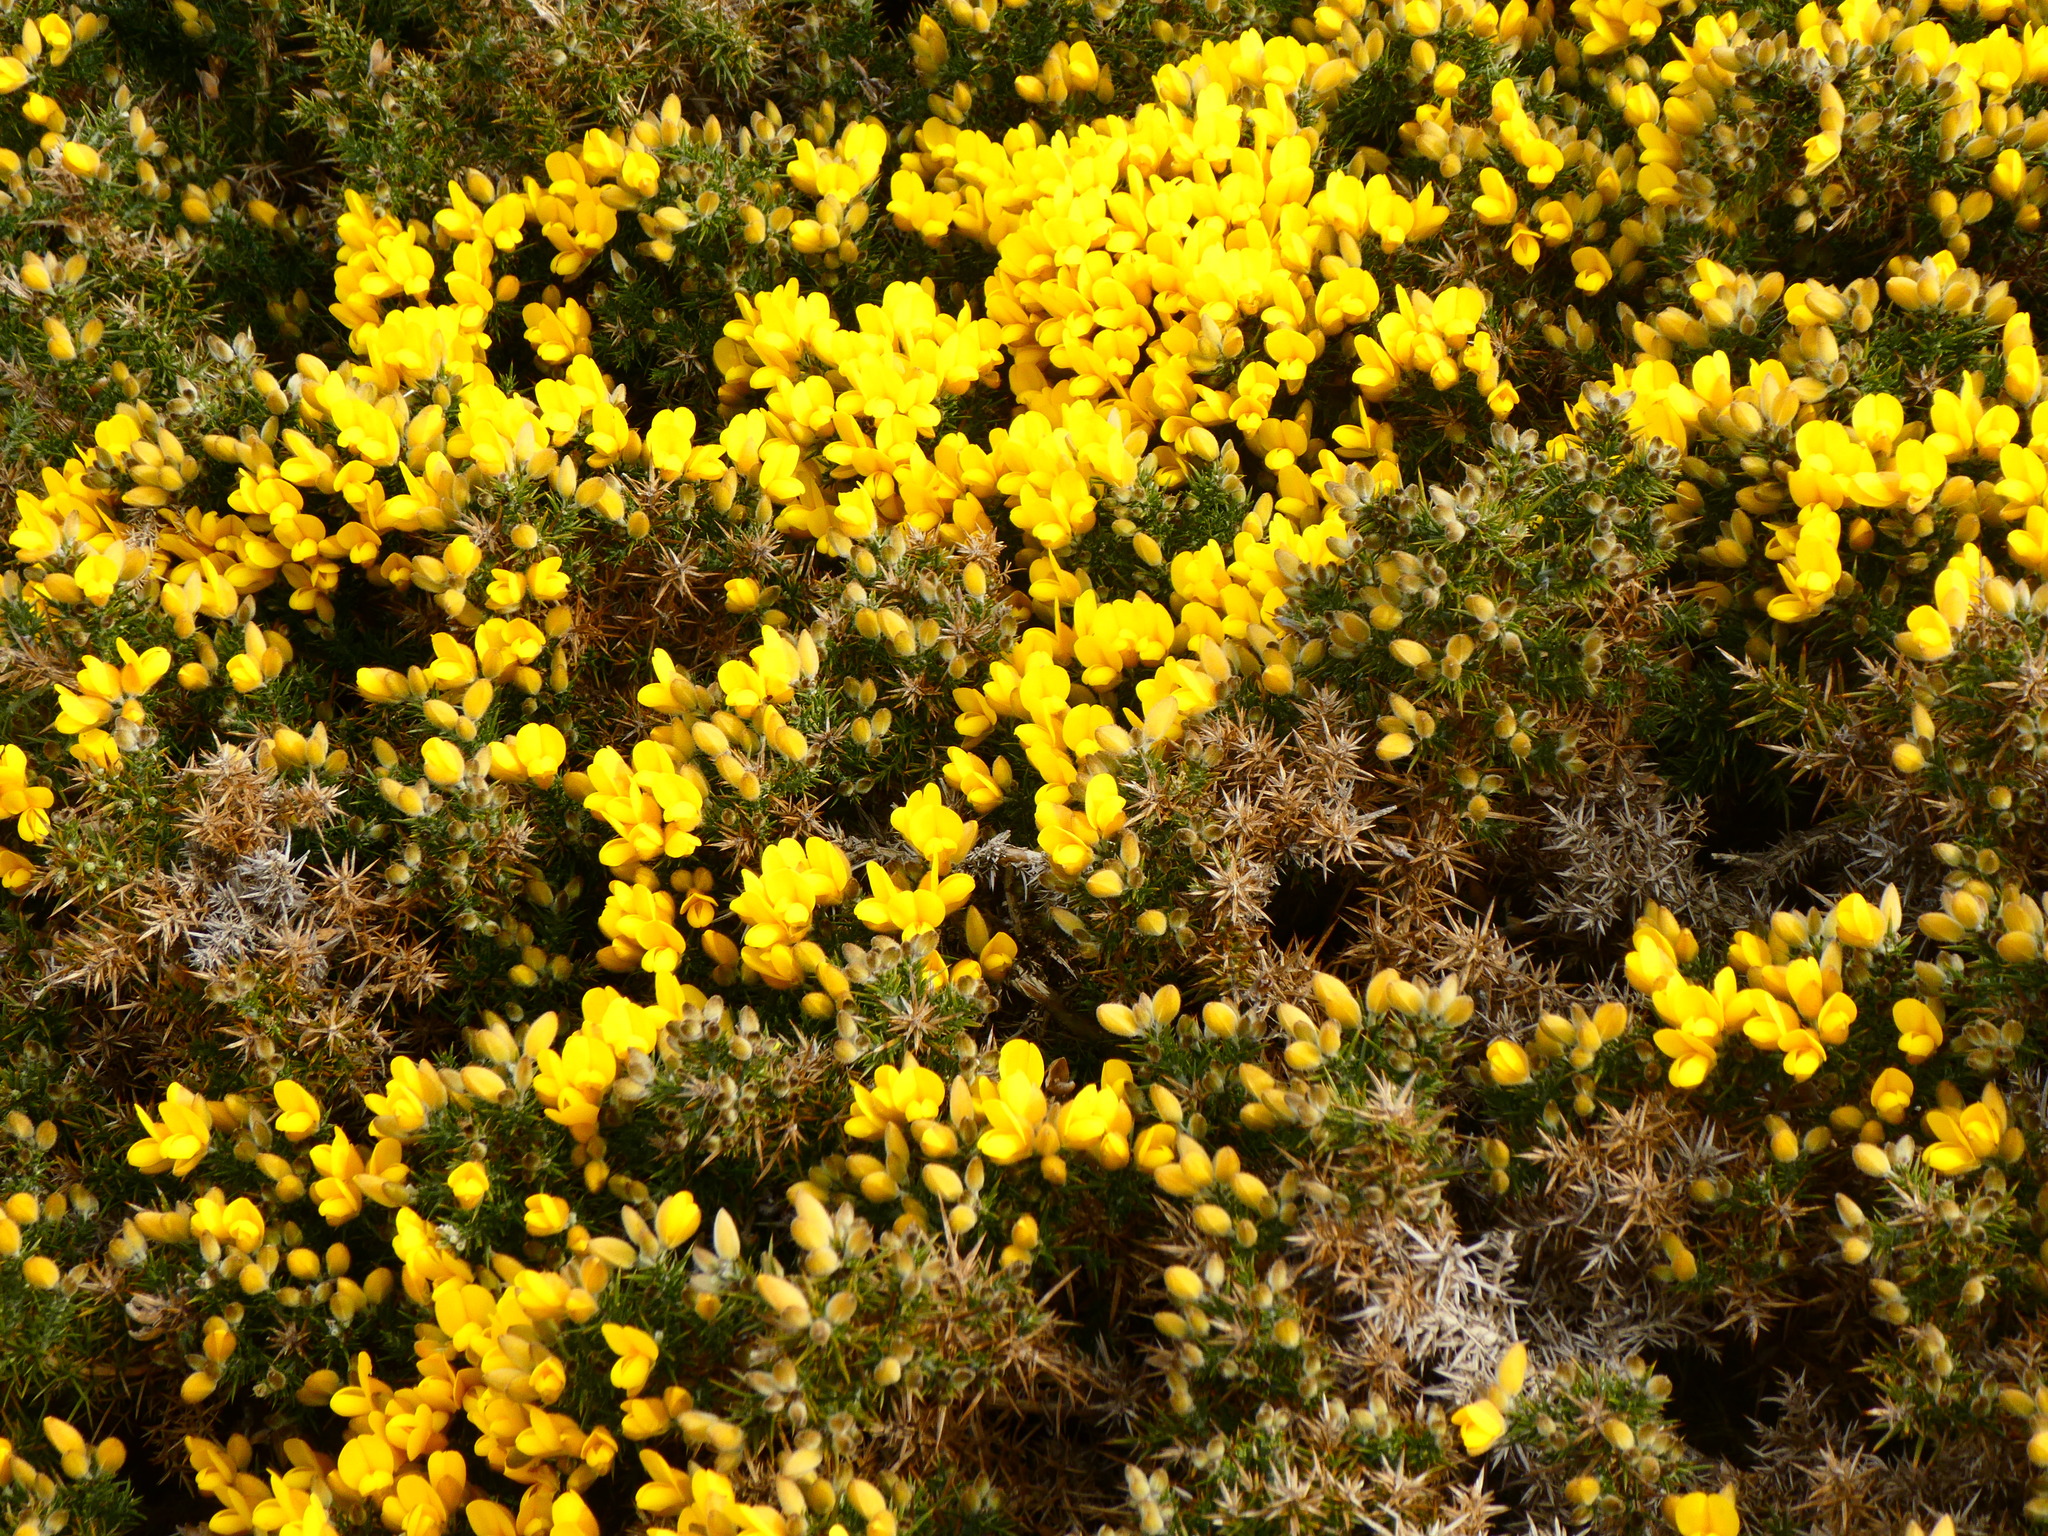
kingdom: Plantae
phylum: Tracheophyta
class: Magnoliopsida
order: Fabales
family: Fabaceae
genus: Ulex
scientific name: Ulex europaeus
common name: Common gorse
